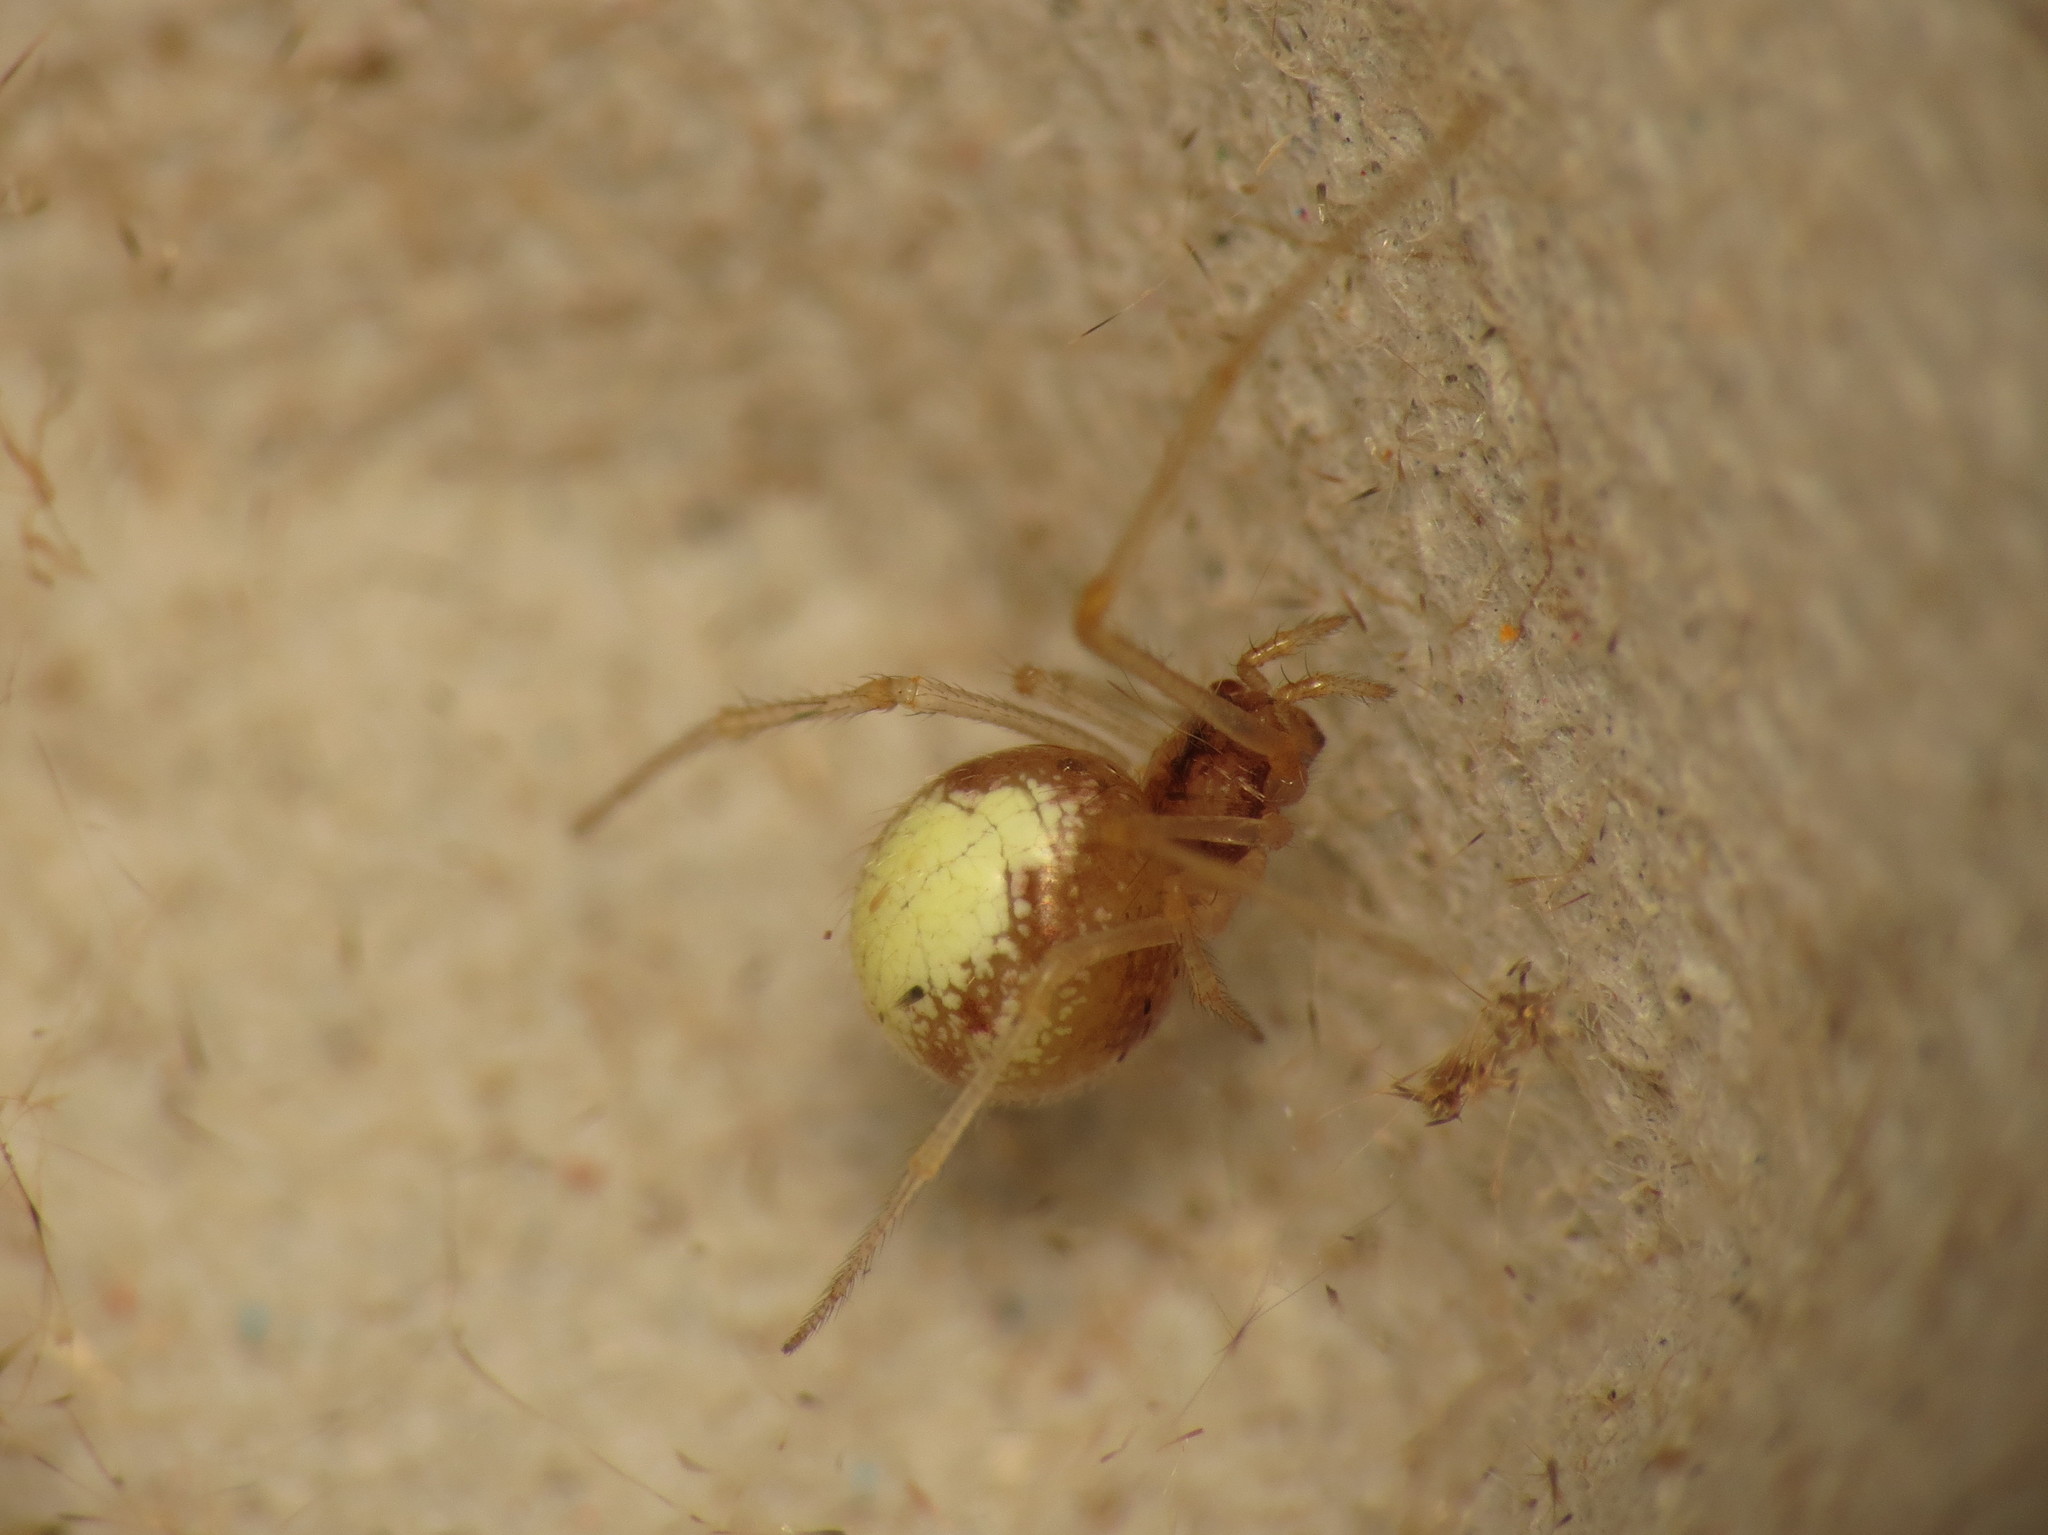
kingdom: Animalia
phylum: Arthropoda
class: Arachnida
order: Araneae
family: Theridiidae
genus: Neottiura
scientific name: Neottiura bimaculata
